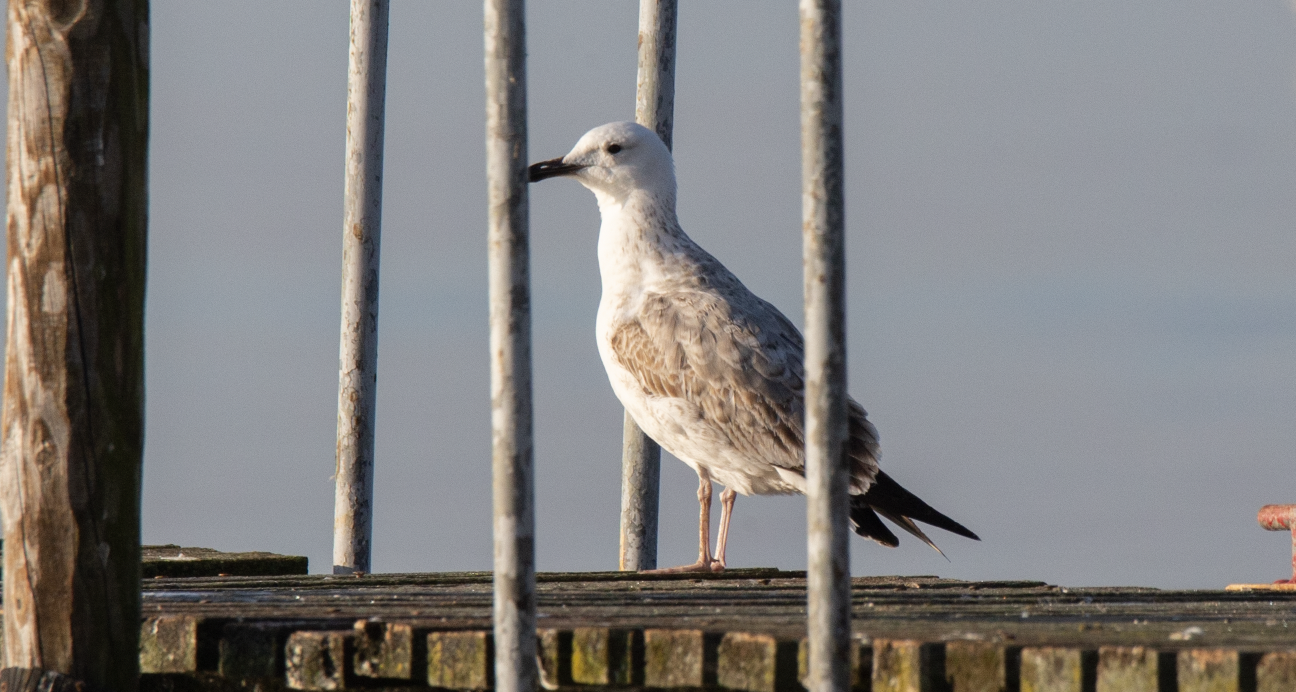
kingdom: Animalia
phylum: Chordata
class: Aves
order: Charadriiformes
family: Laridae
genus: Larus
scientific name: Larus cachinnans
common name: Caspian gull
